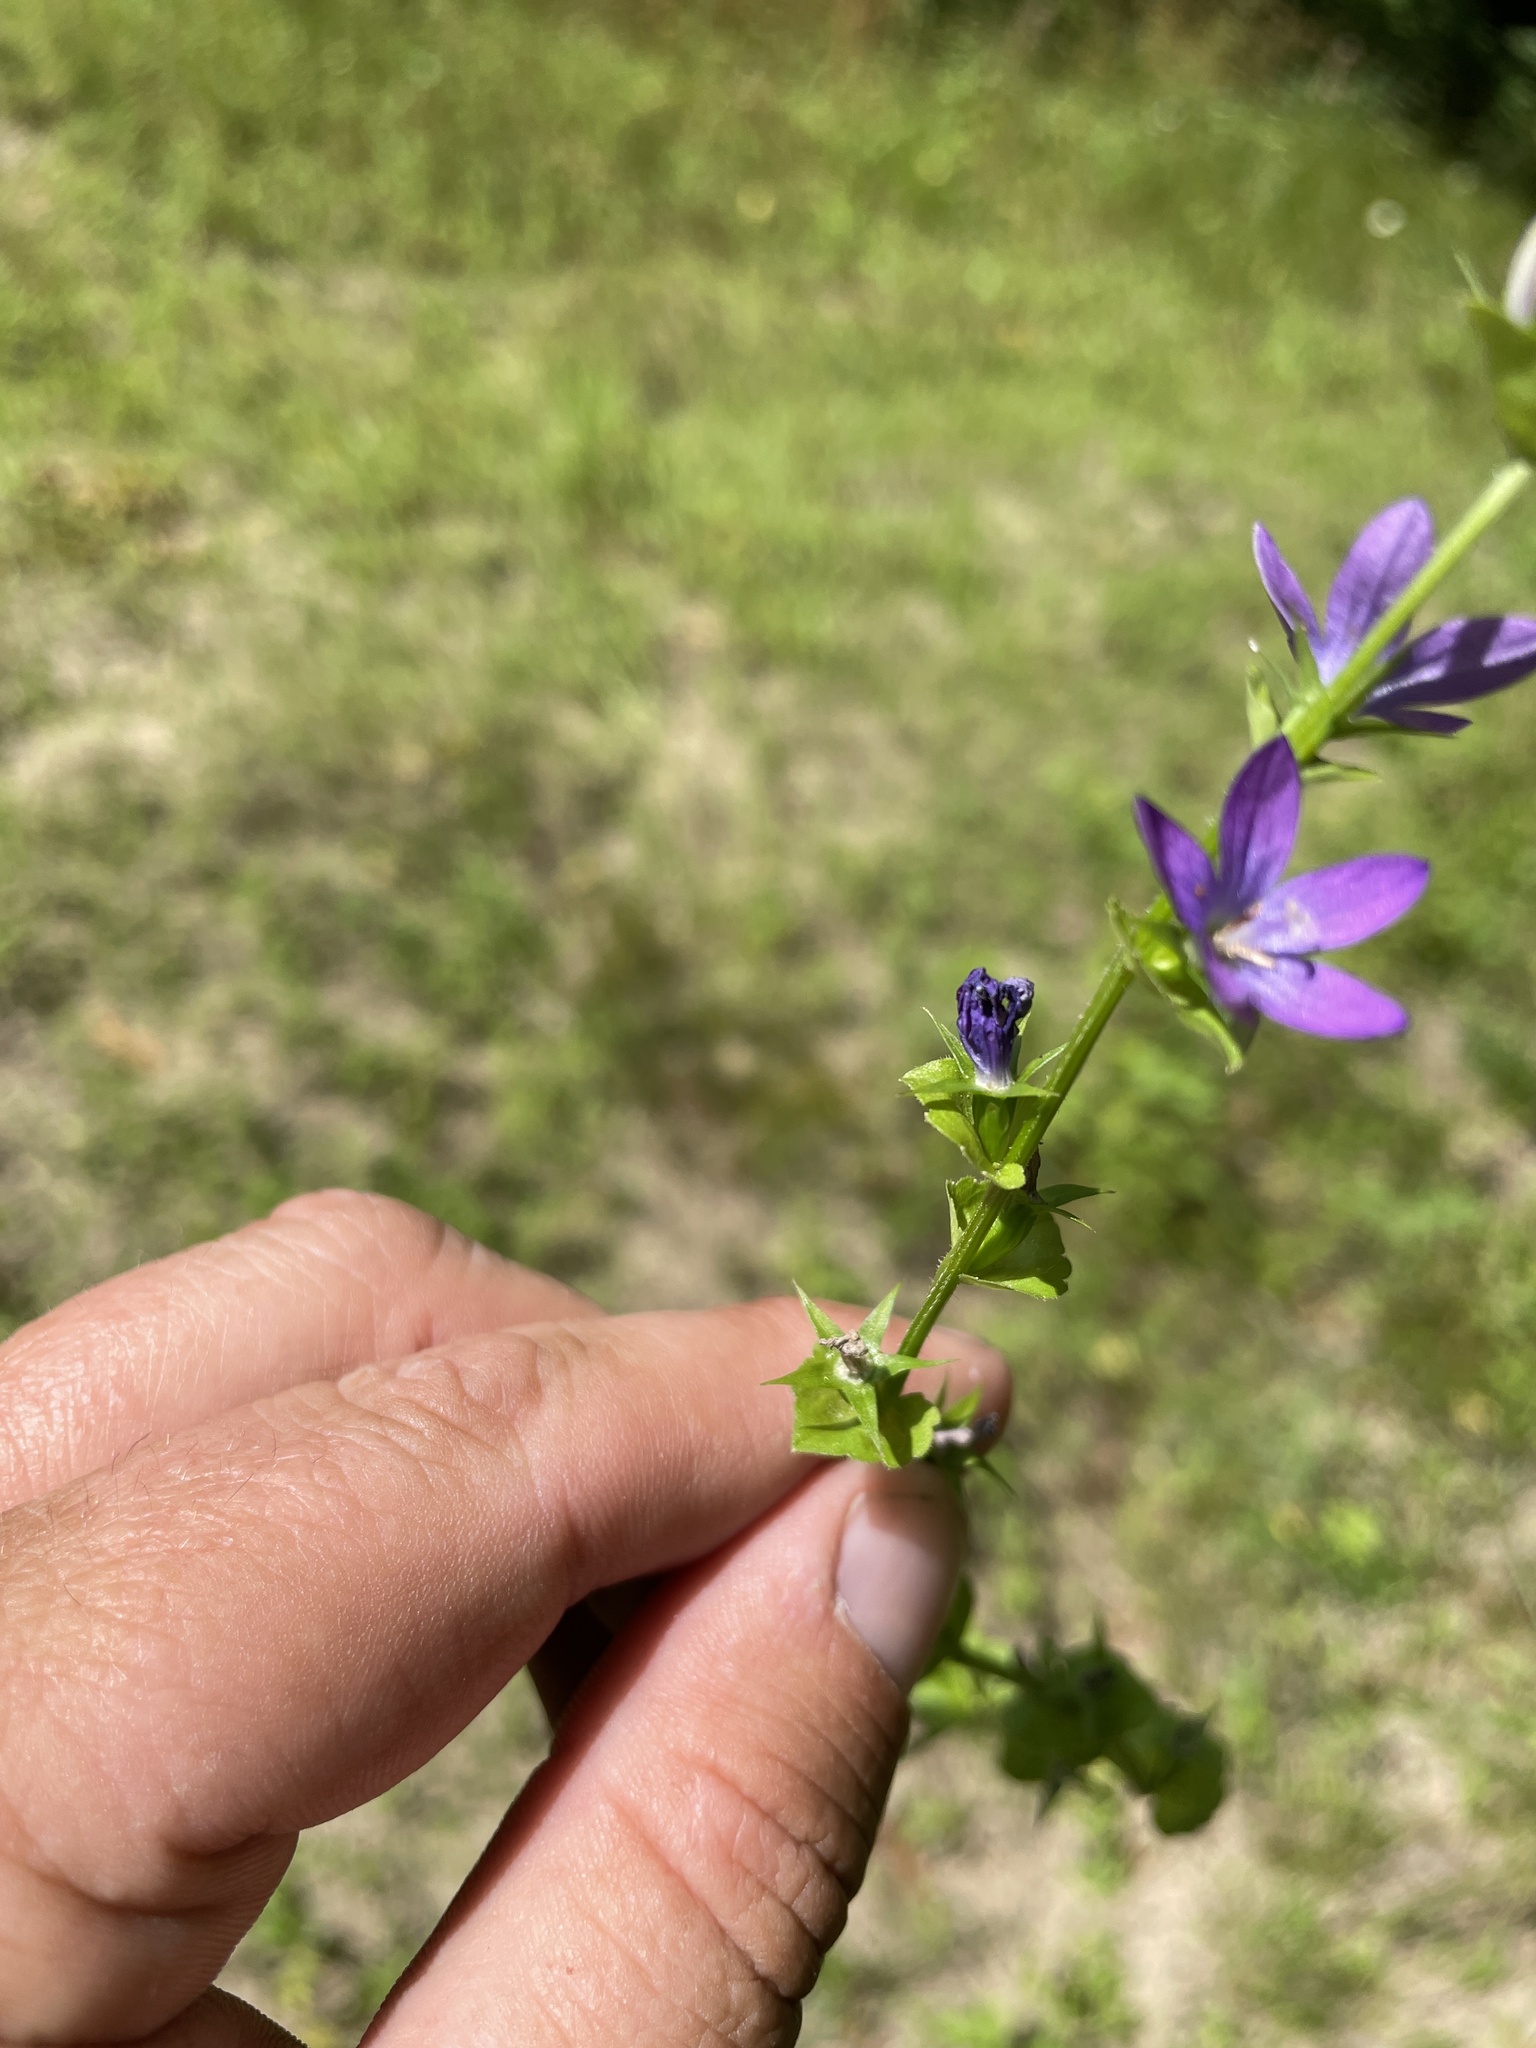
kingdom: Plantae
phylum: Tracheophyta
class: Magnoliopsida
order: Asterales
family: Campanulaceae
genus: Triodanis
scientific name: Triodanis perfoliata
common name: Clasping venus' looking-glass
